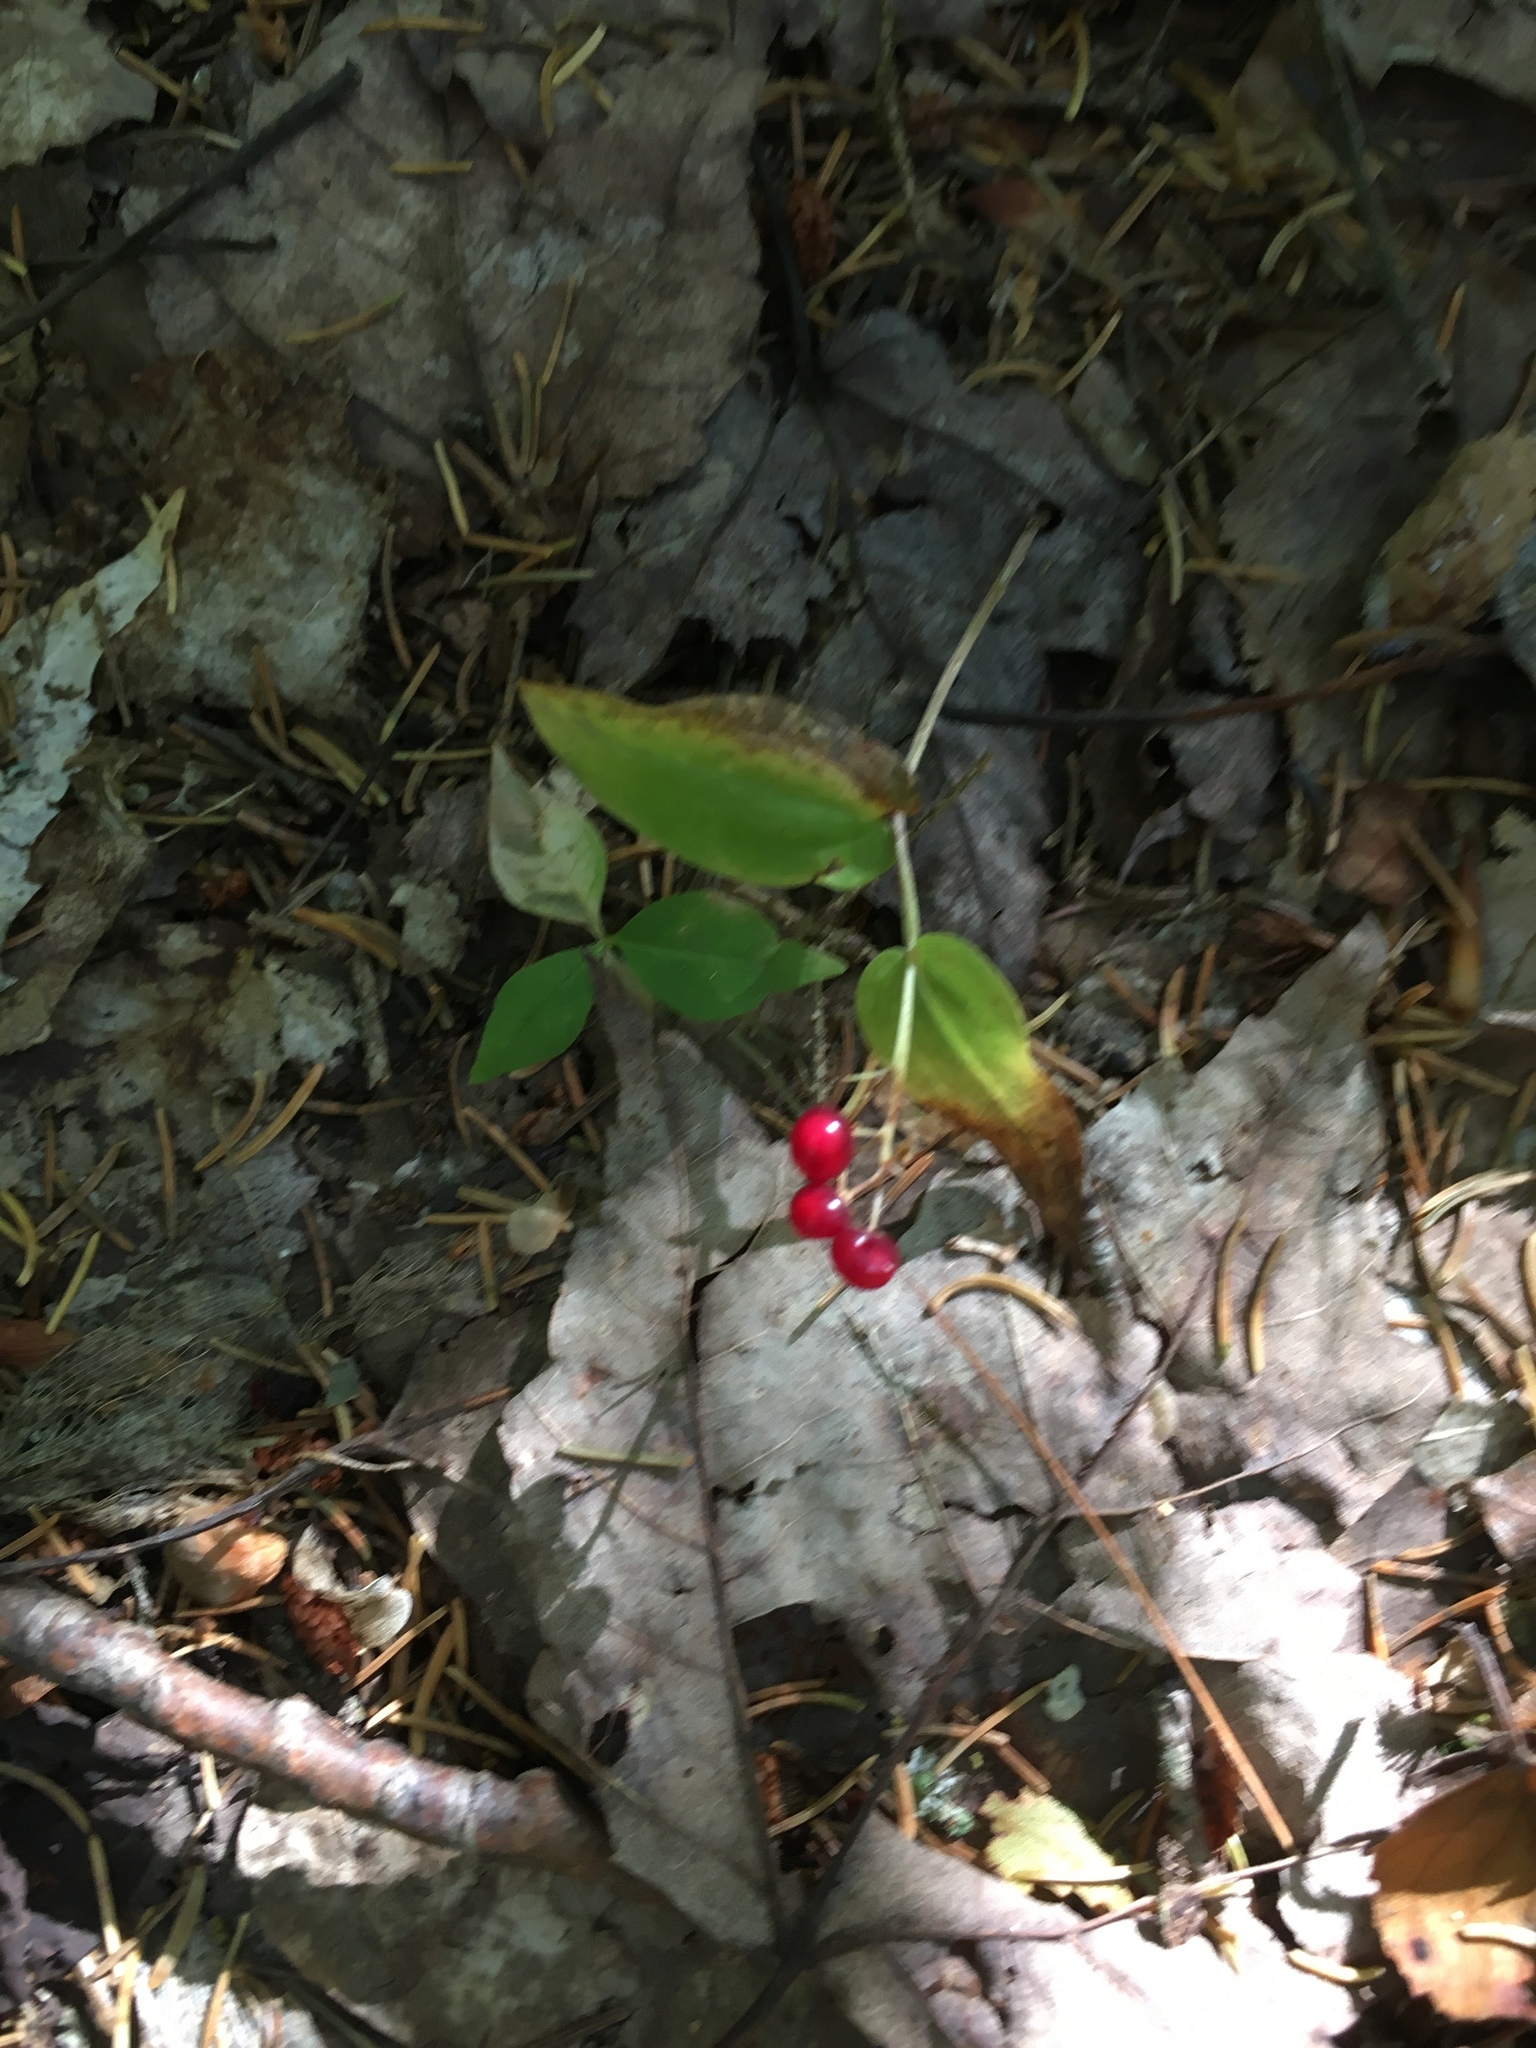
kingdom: Plantae
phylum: Tracheophyta
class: Liliopsida
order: Asparagales
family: Asparagaceae
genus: Maianthemum
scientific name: Maianthemum canadense
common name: False lily-of-the-valley
